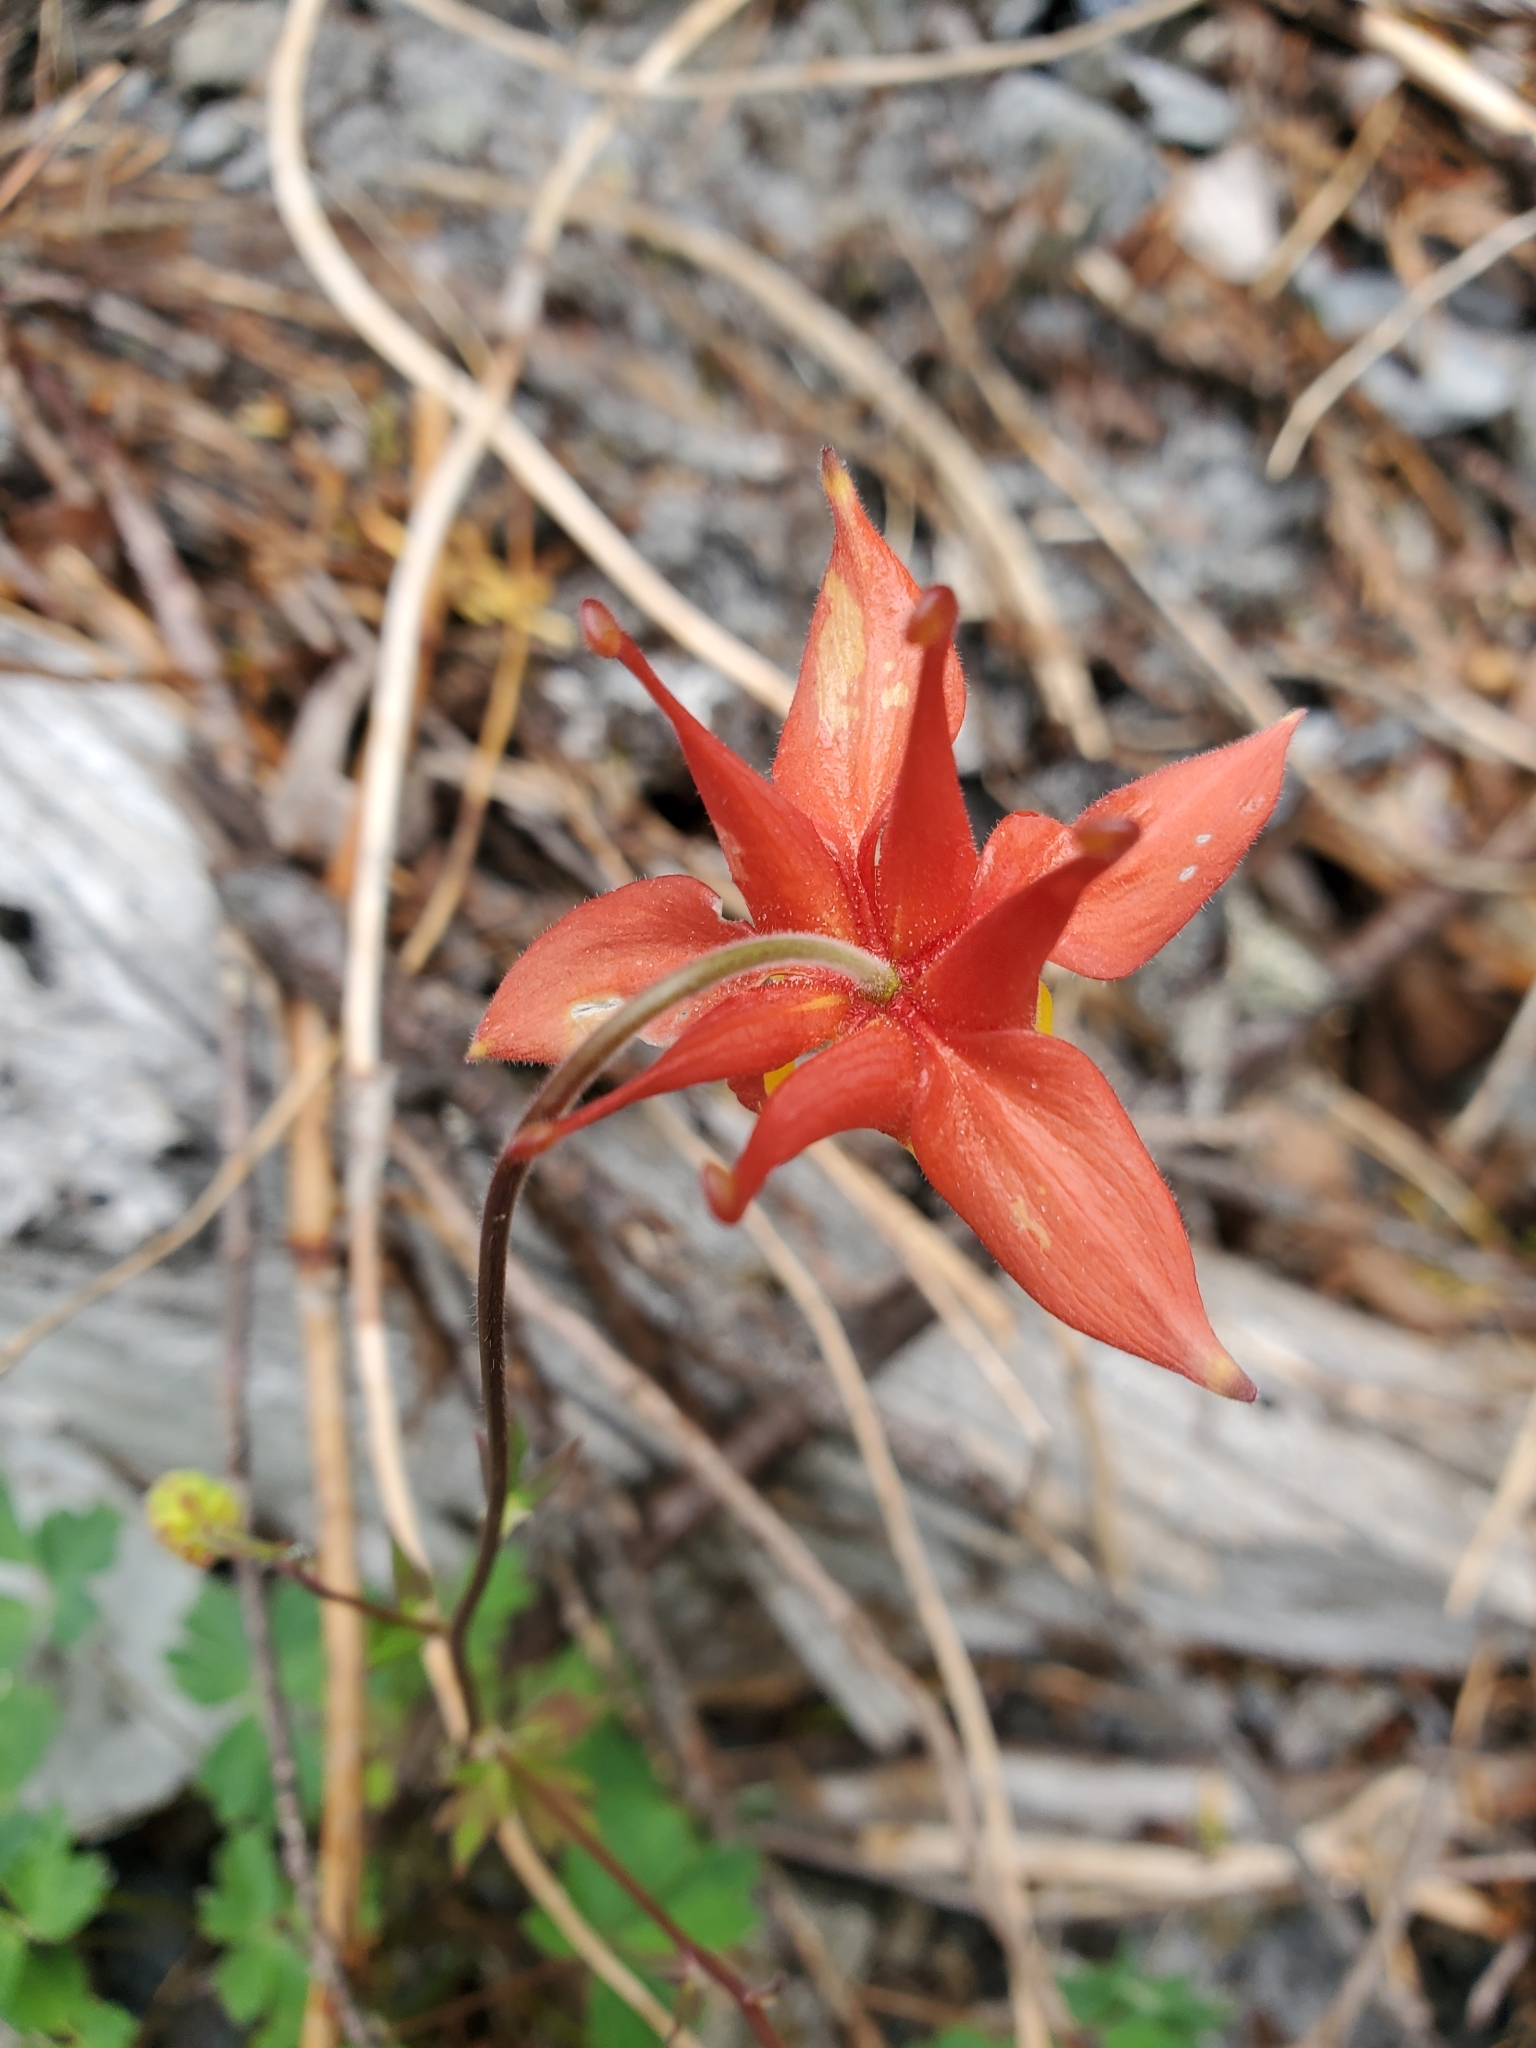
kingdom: Plantae
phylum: Tracheophyta
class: Magnoliopsida
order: Ranunculales
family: Ranunculaceae
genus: Aquilegia
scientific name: Aquilegia formosa
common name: Sitka columbine
